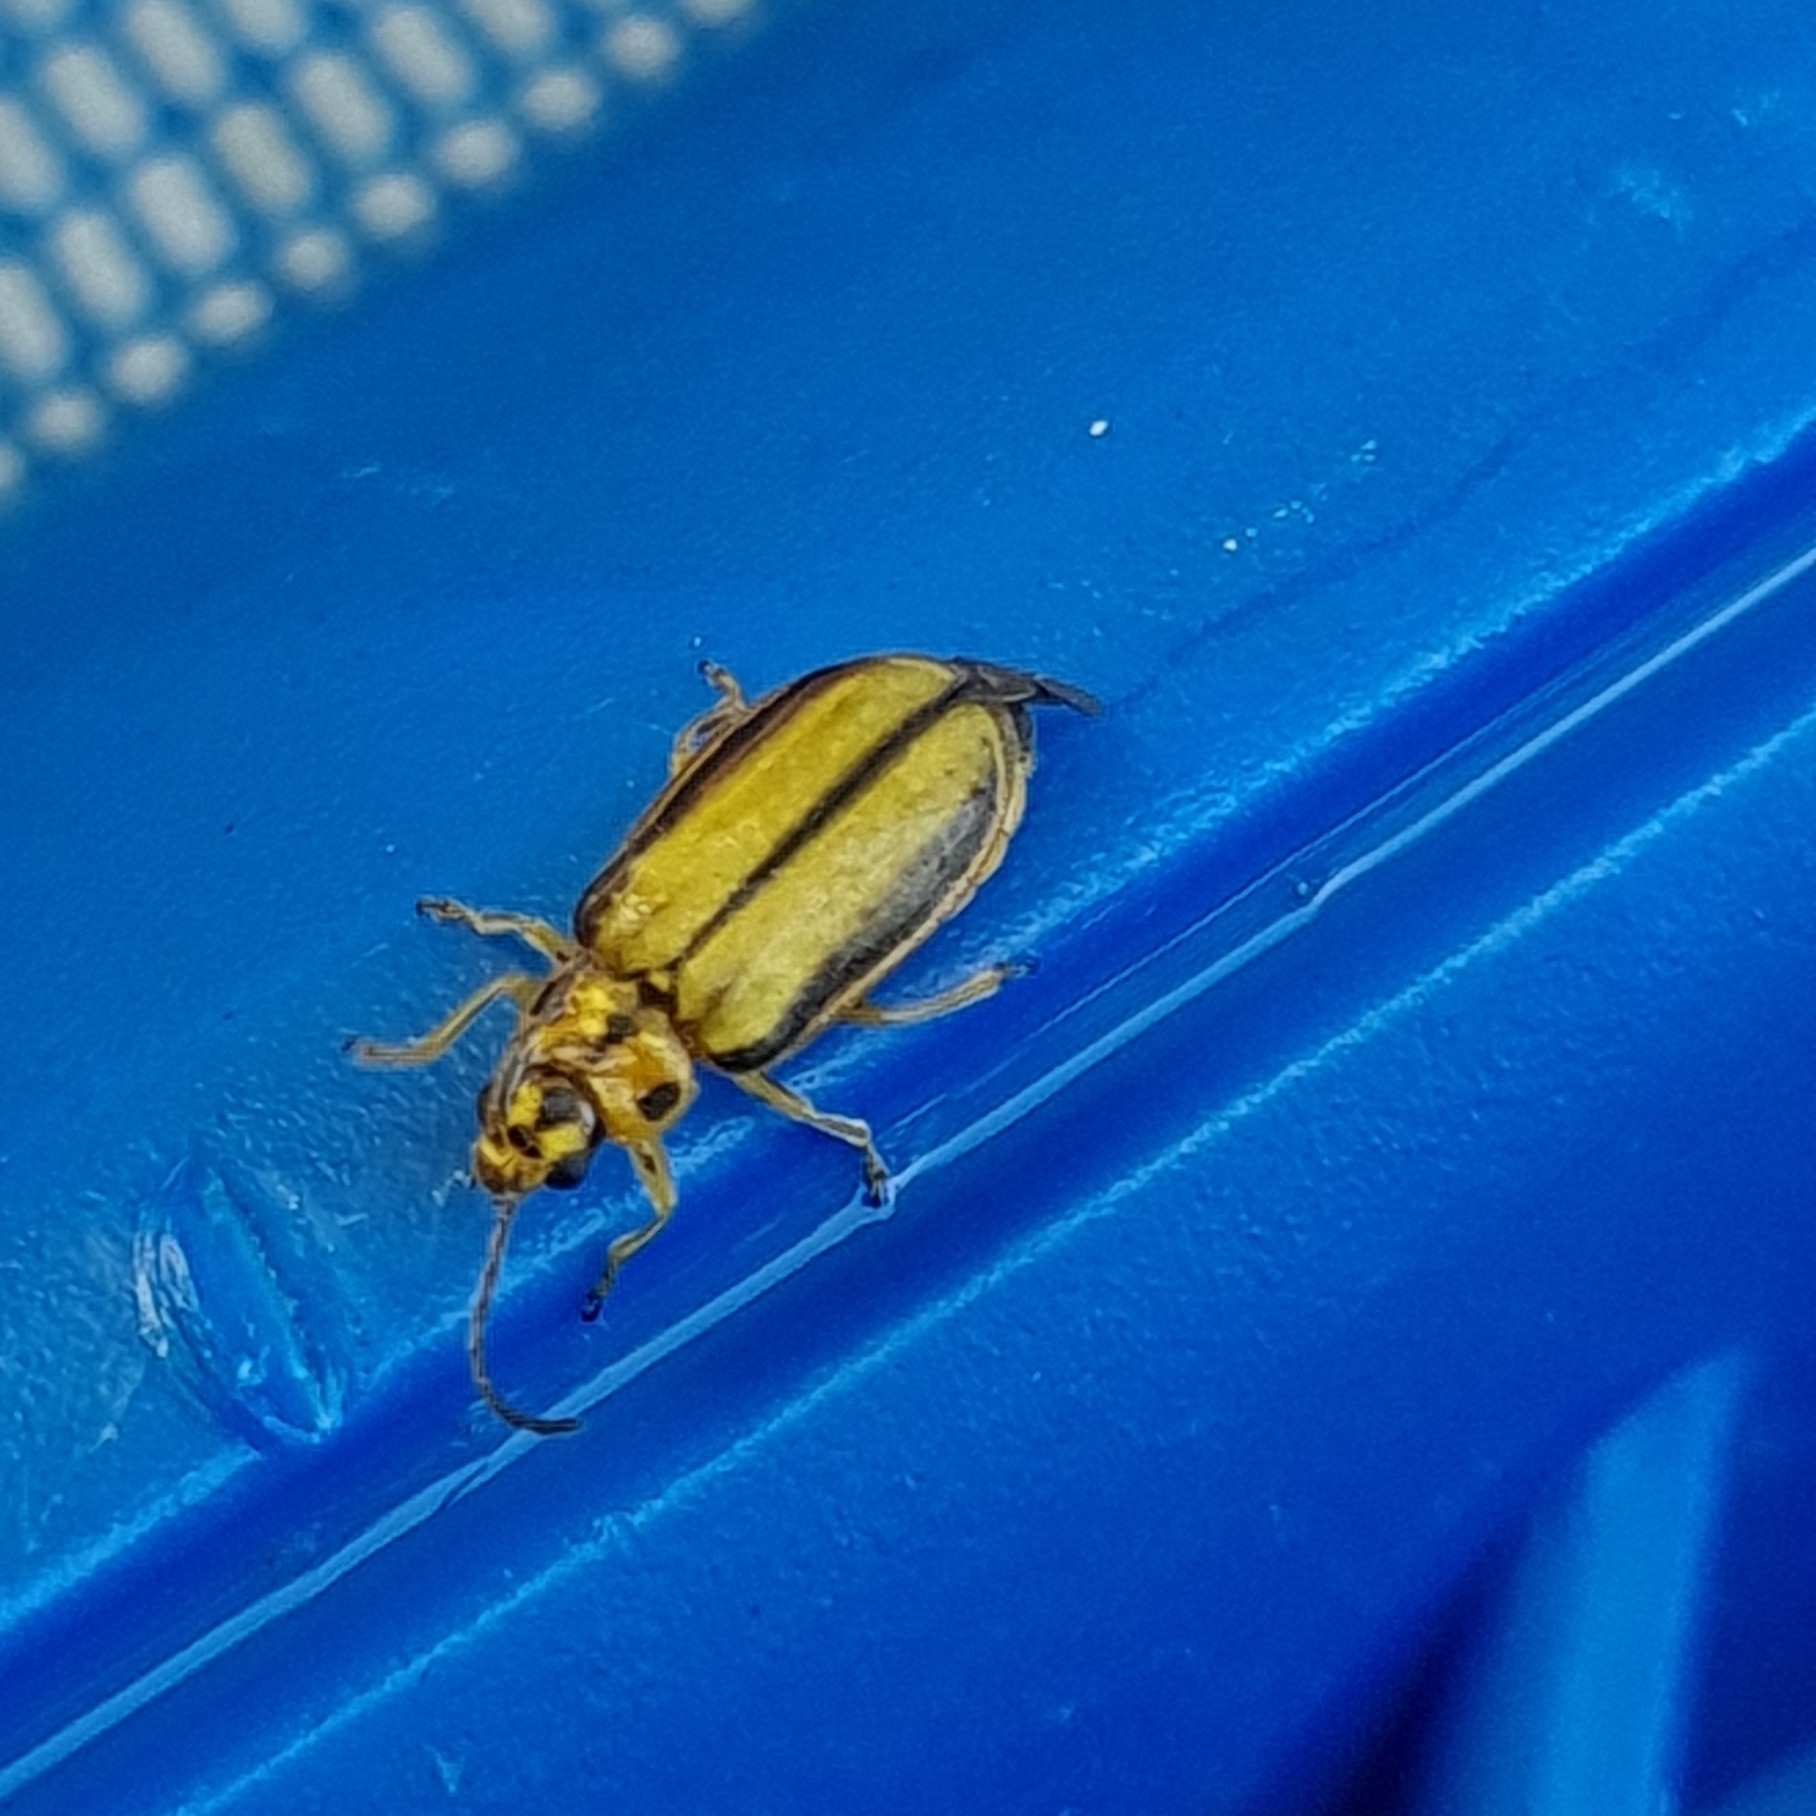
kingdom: Animalia
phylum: Arthropoda
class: Insecta
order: Coleoptera
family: Chrysomelidae
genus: Xanthogaleruca
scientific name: Xanthogaleruca luteola
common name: Elm leaf beetle
